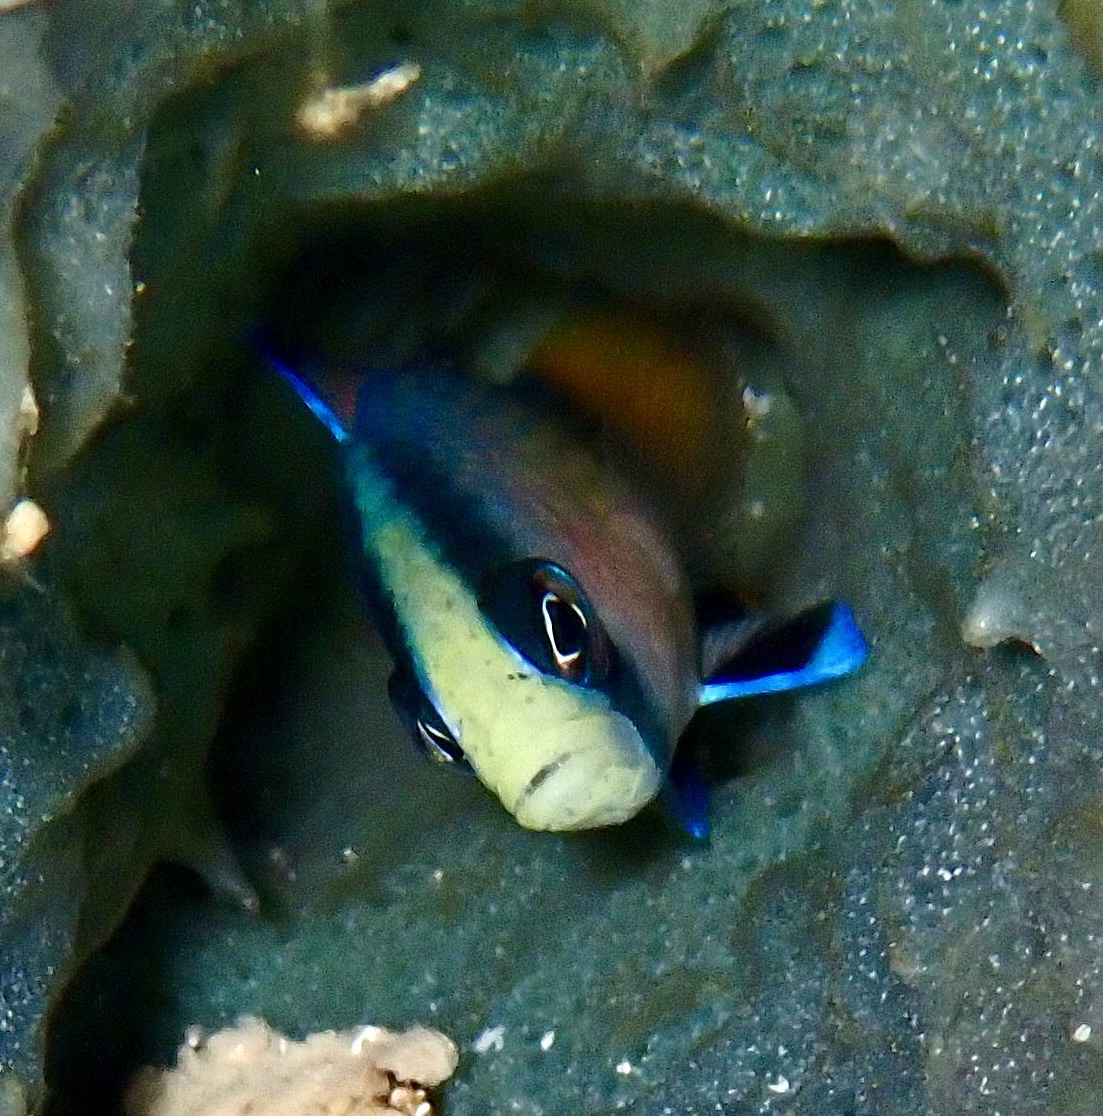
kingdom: Animalia
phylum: Chordata
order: Perciformes
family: Pseudochromidae
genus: Manonichthys
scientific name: Manonichthys splendens
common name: Splendid dottyback
